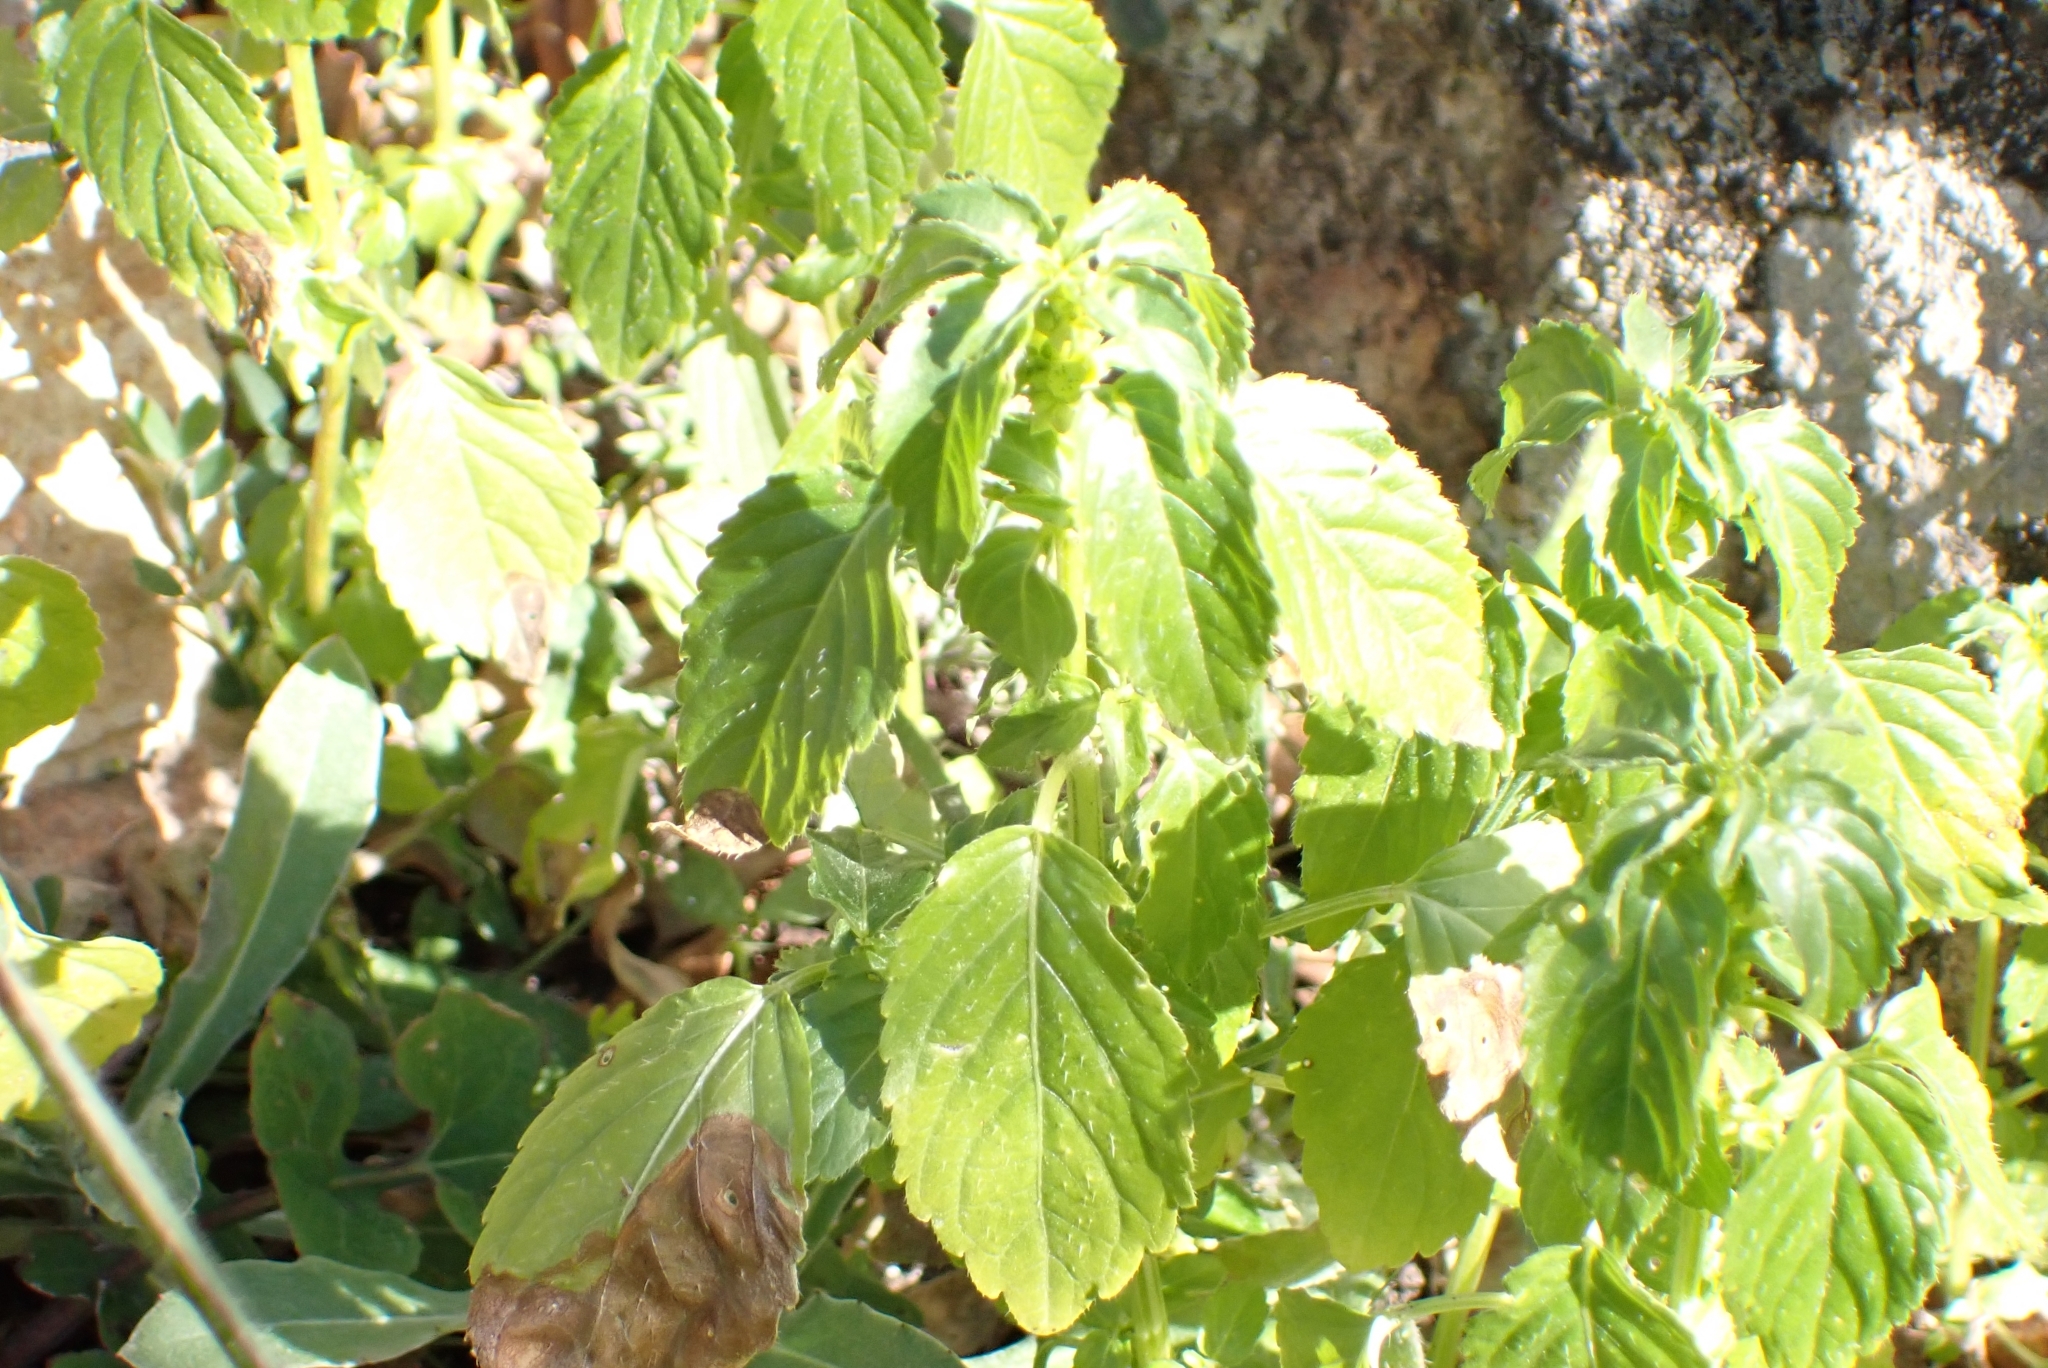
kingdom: Plantae
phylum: Tracheophyta
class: Magnoliopsida
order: Malpighiales
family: Euphorbiaceae
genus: Mercurialis
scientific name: Mercurialis annua
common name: Annual mercury
